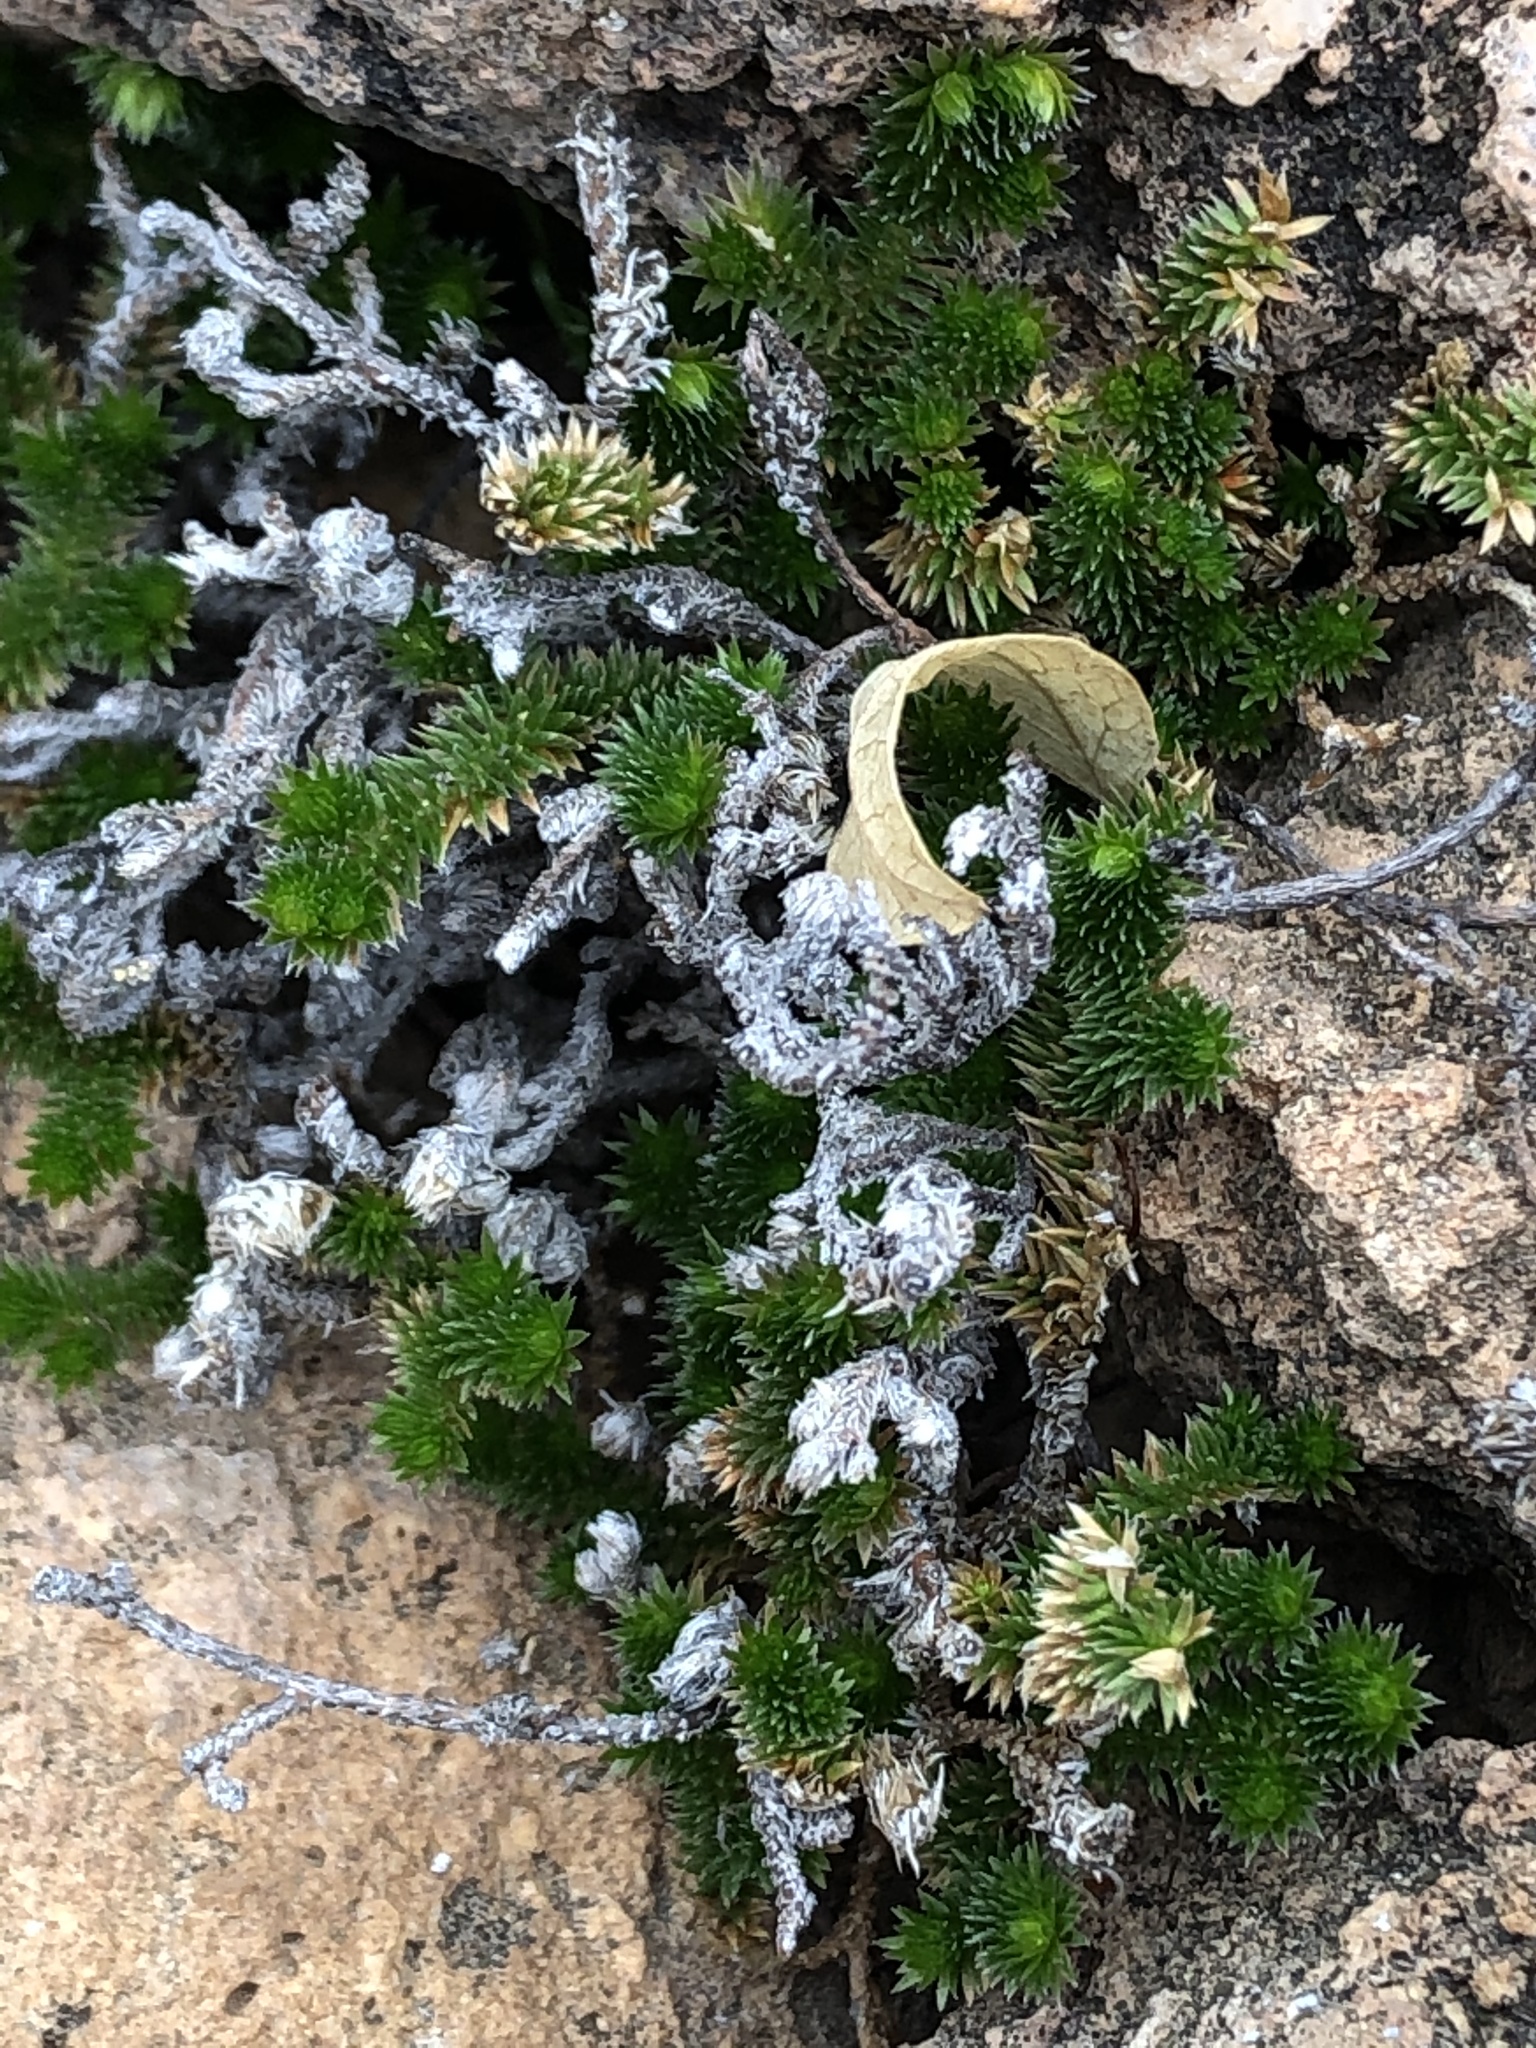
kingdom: Plantae
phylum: Tracheophyta
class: Lycopodiopsida
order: Selaginellales
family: Selaginellaceae
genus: Selaginella
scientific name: Selaginella arizonica
